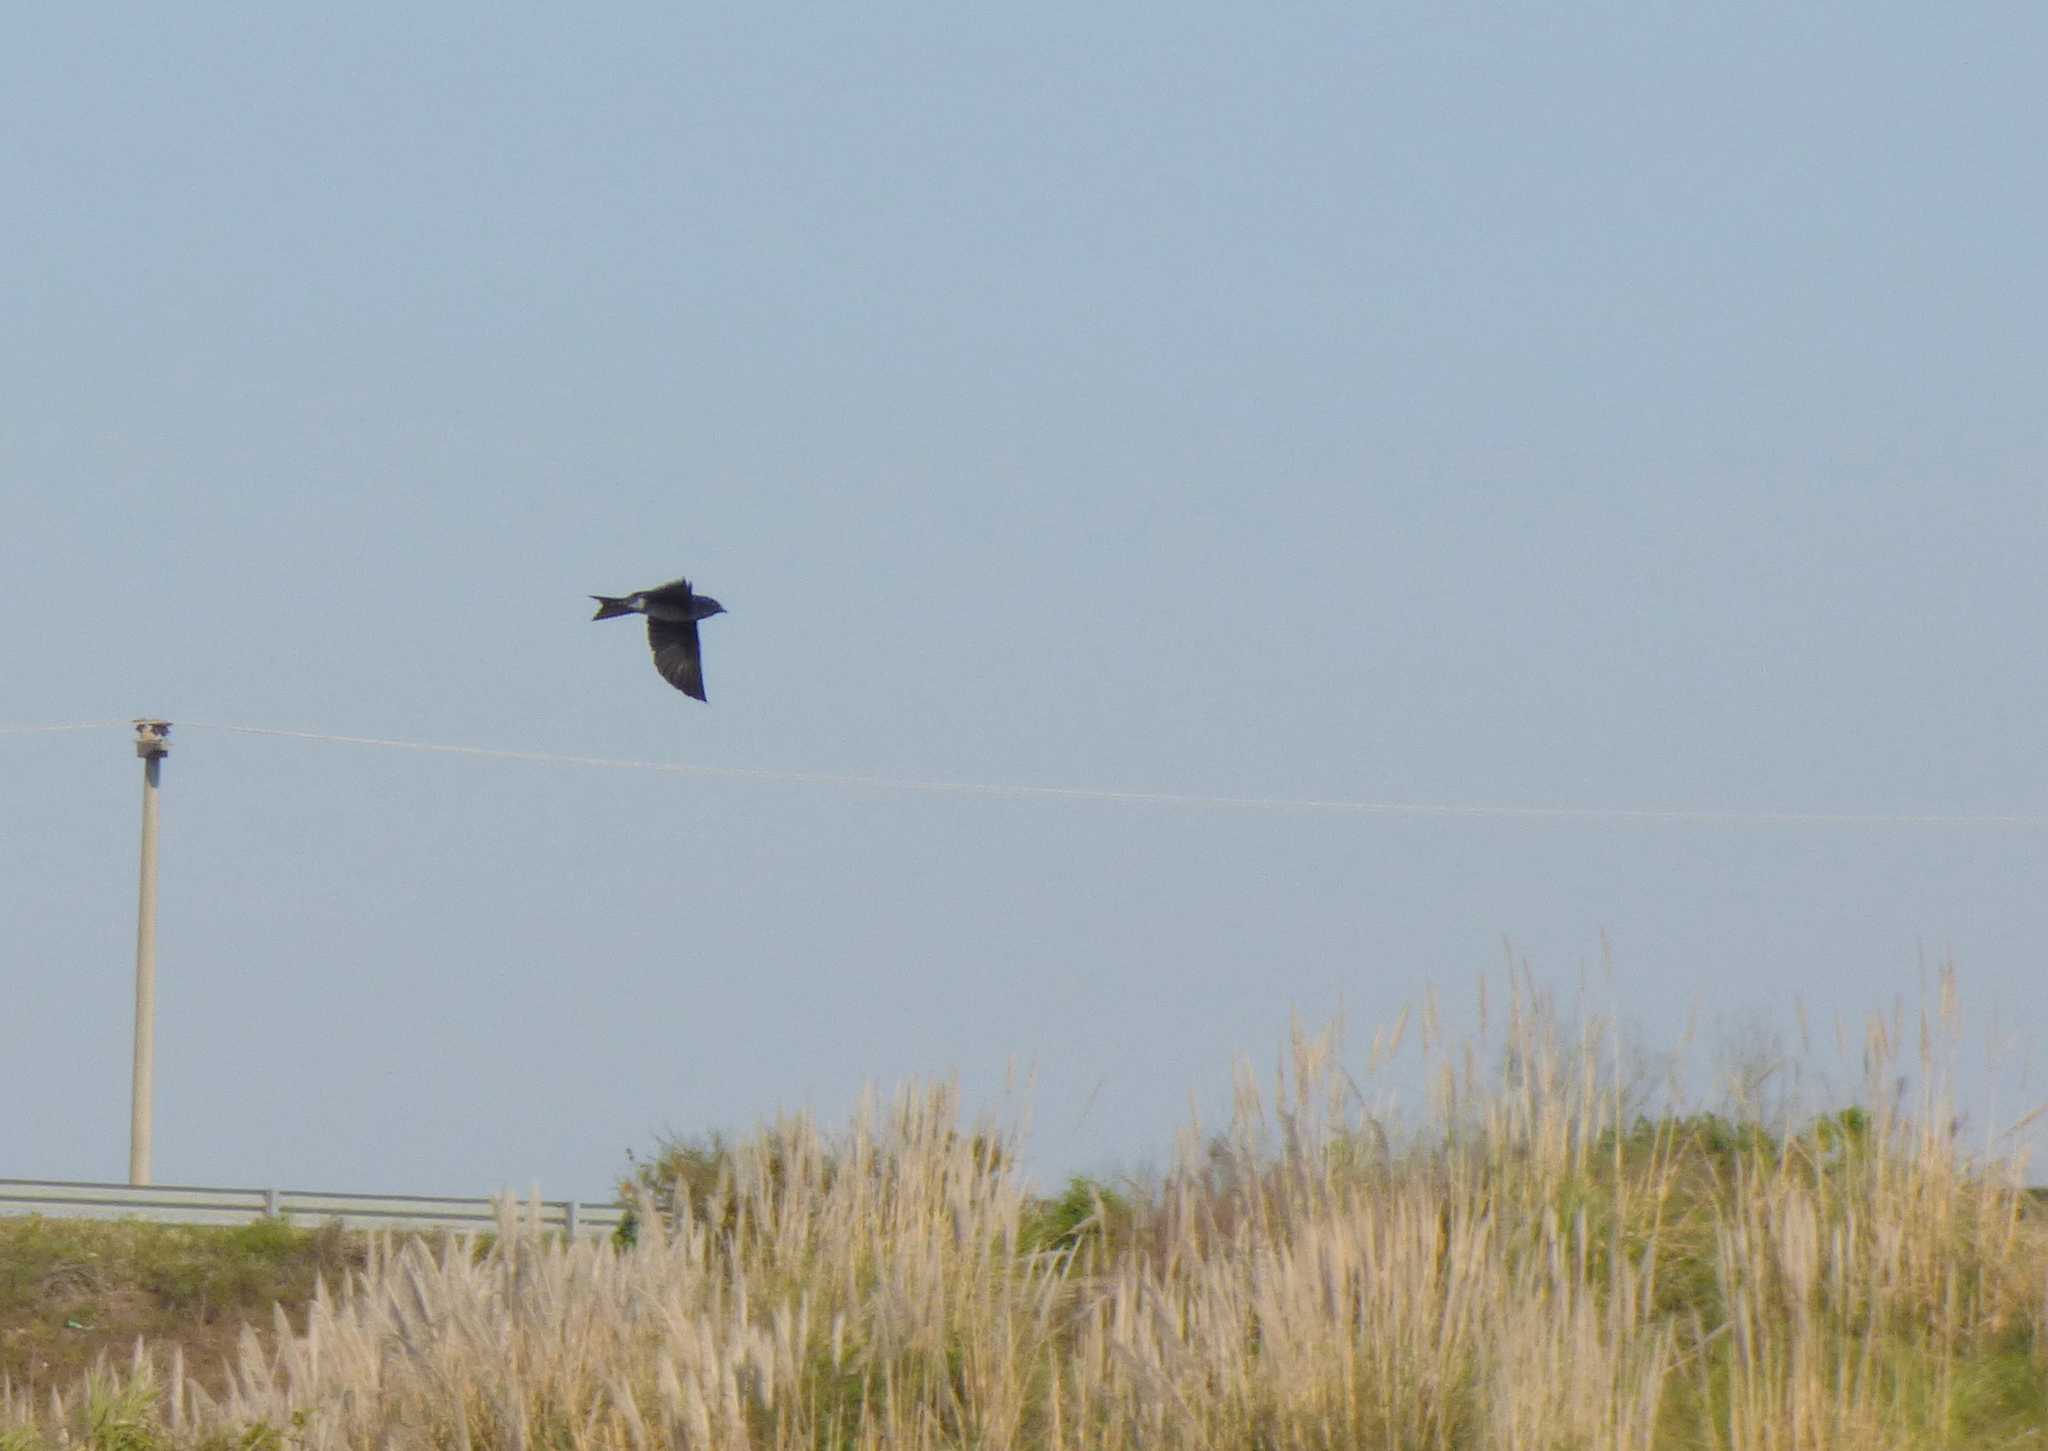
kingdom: Animalia
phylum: Chordata
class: Aves
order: Passeriformes
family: Hirundinidae
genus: Progne
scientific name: Progne chalybea
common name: Grey-breasted martin
